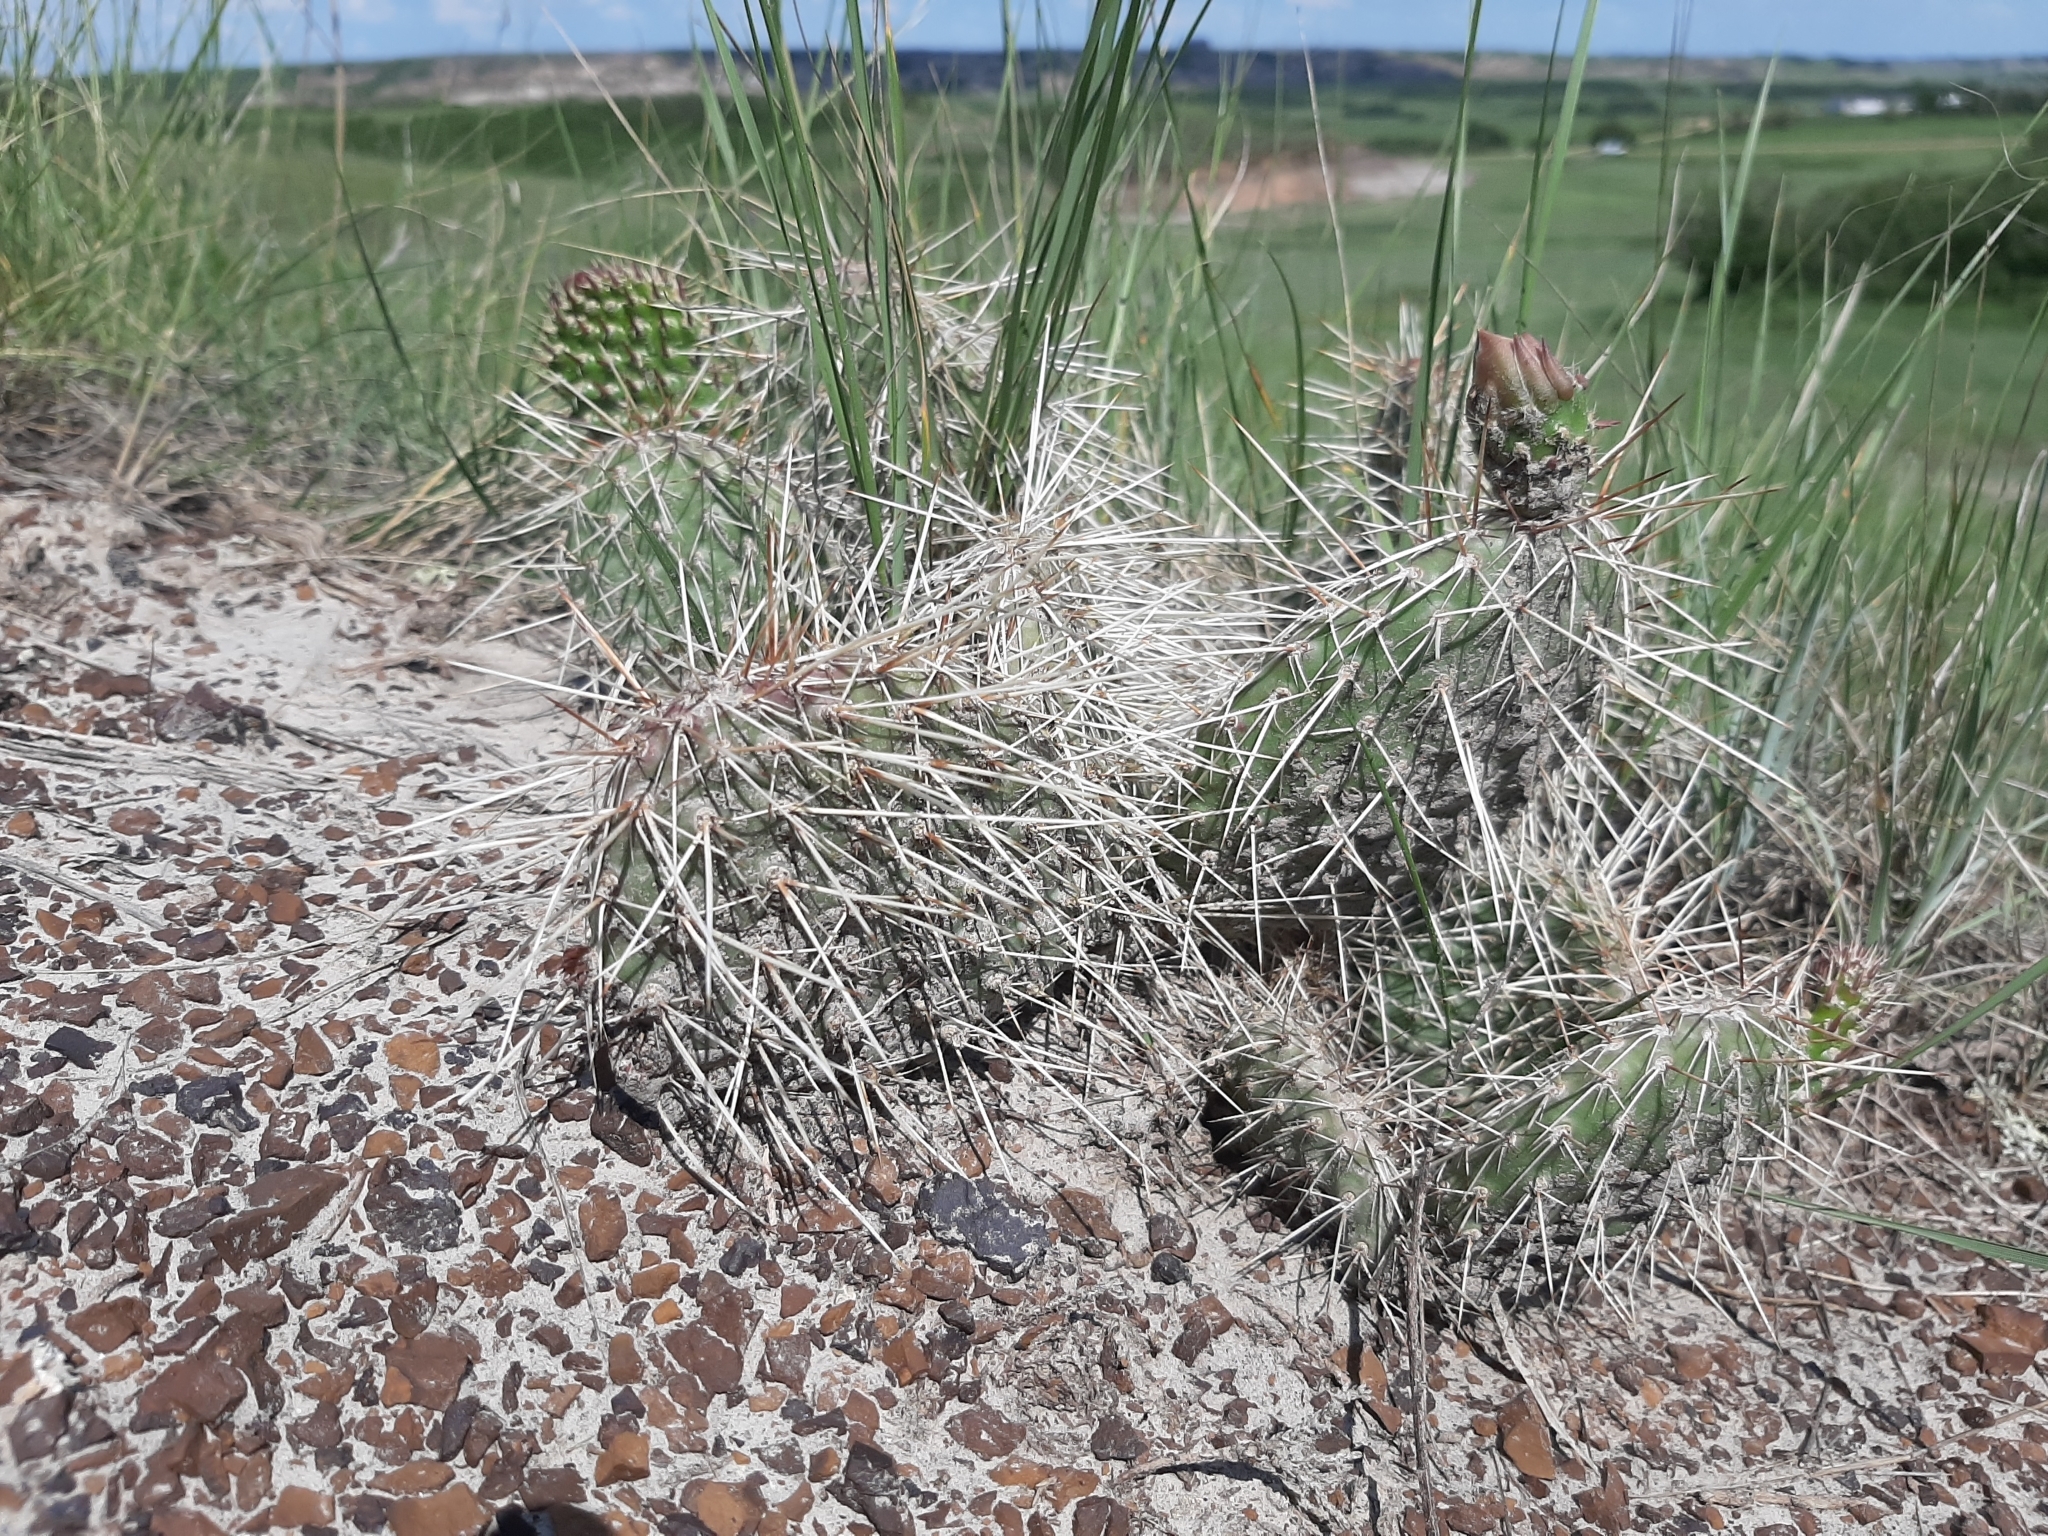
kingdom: Plantae
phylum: Tracheophyta
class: Magnoliopsida
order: Caryophyllales
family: Cactaceae
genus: Opuntia
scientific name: Opuntia polyacantha
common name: Plains prickly-pear
